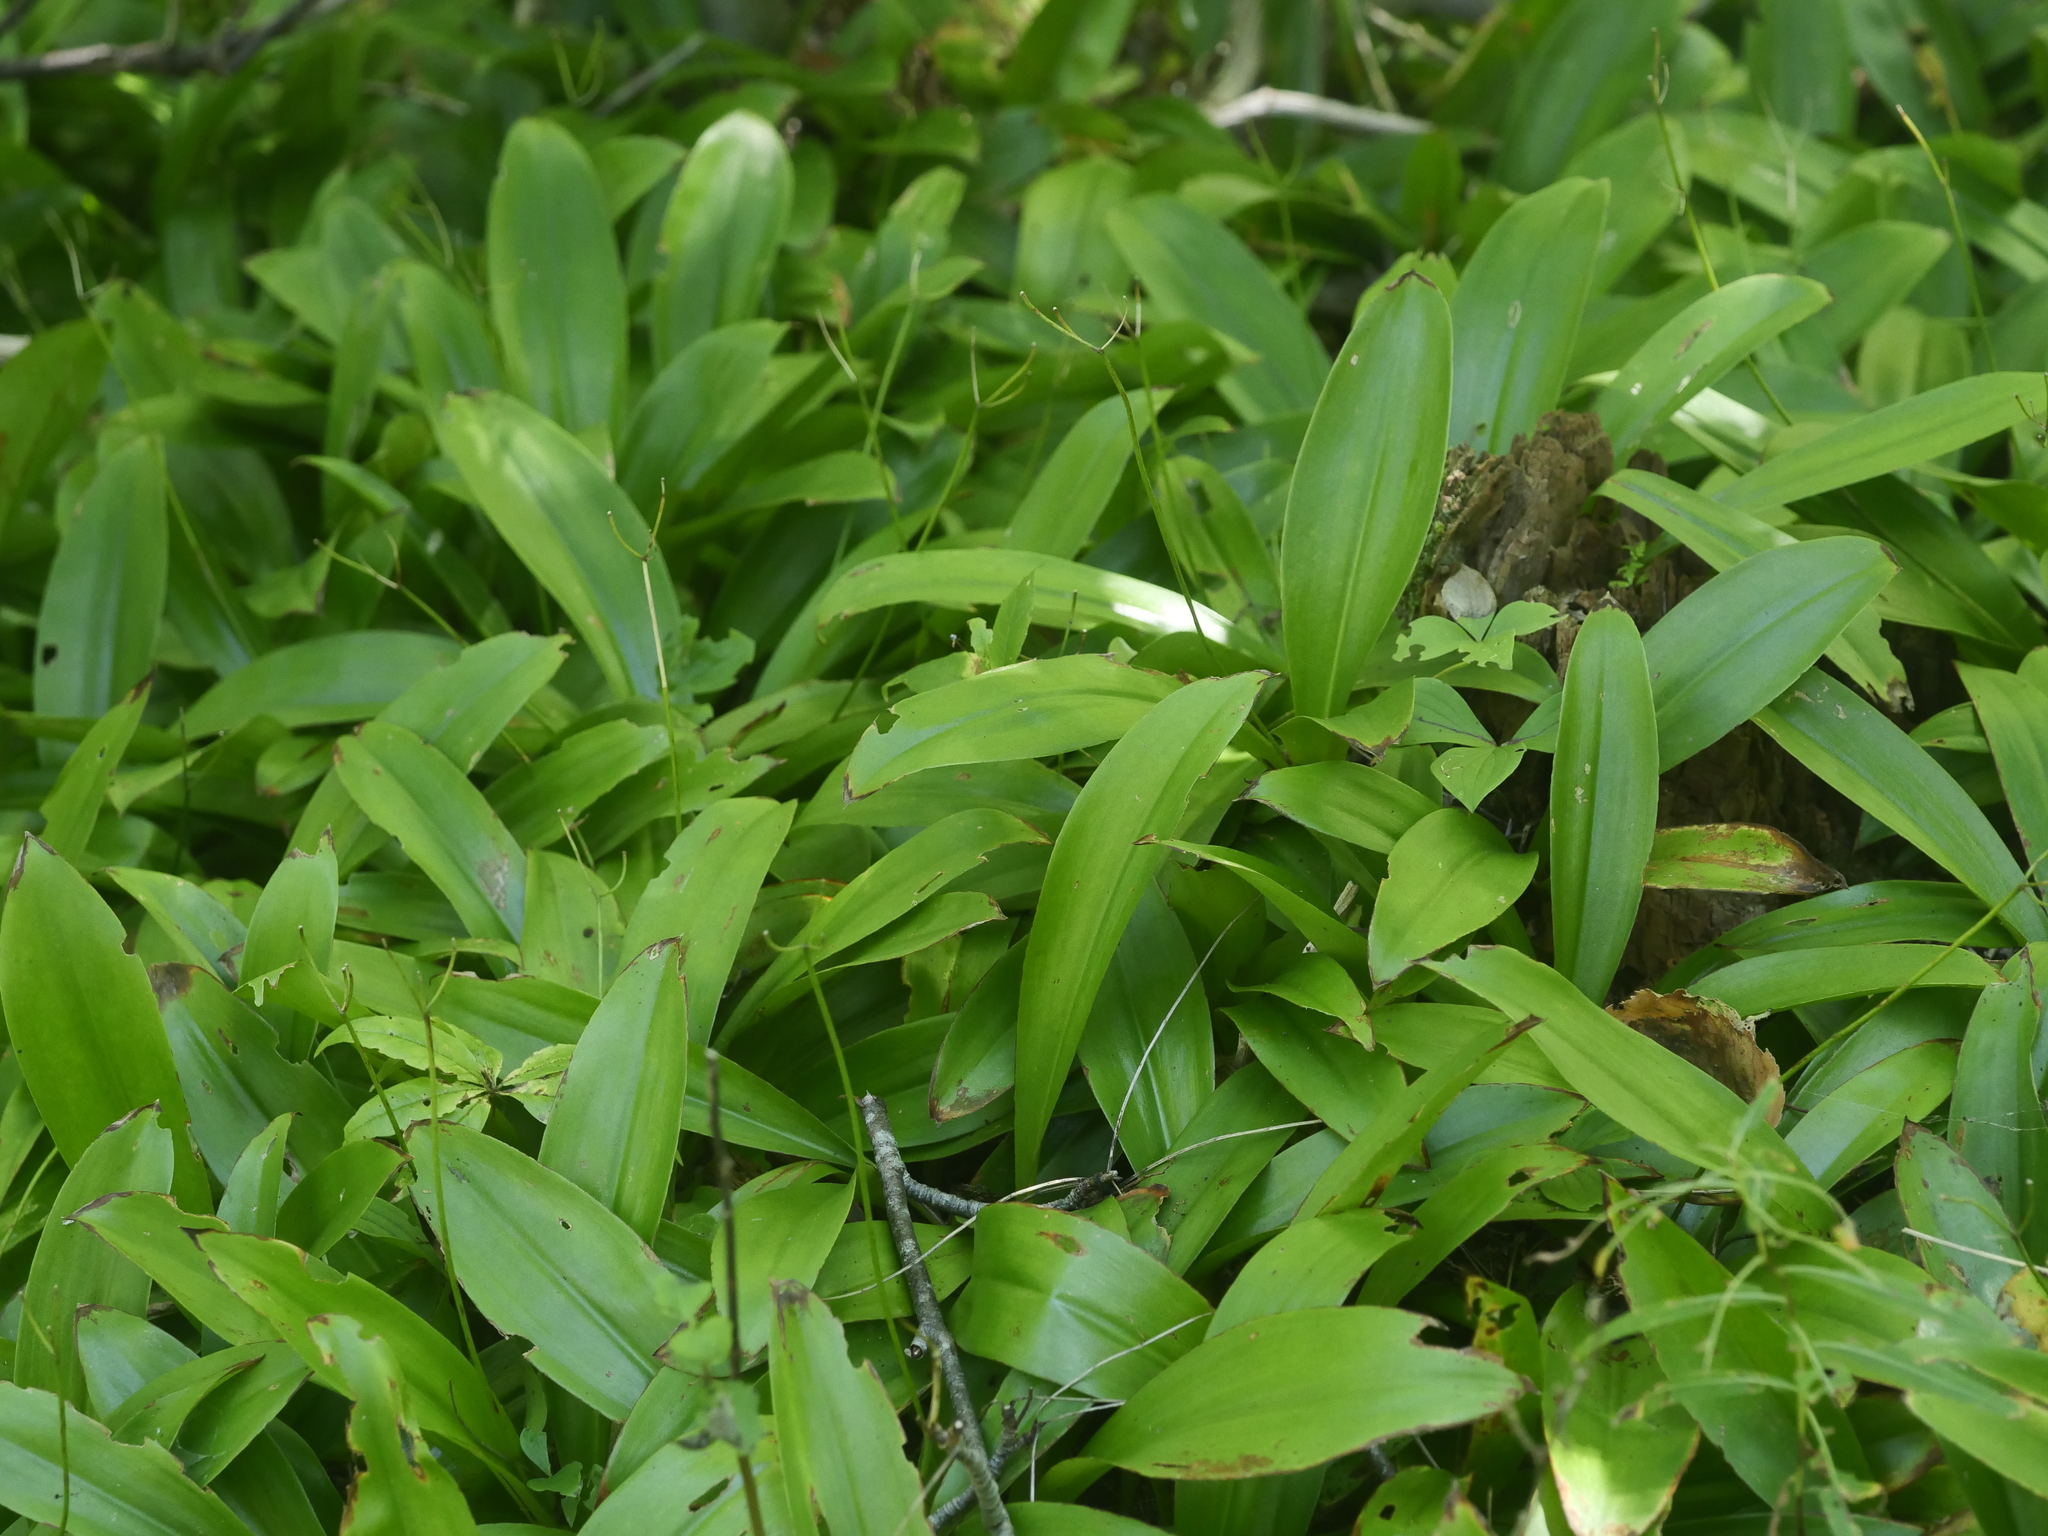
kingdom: Plantae
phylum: Tracheophyta
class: Liliopsida
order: Liliales
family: Liliaceae
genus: Clintonia
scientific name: Clintonia borealis
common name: Yellow clintonia
